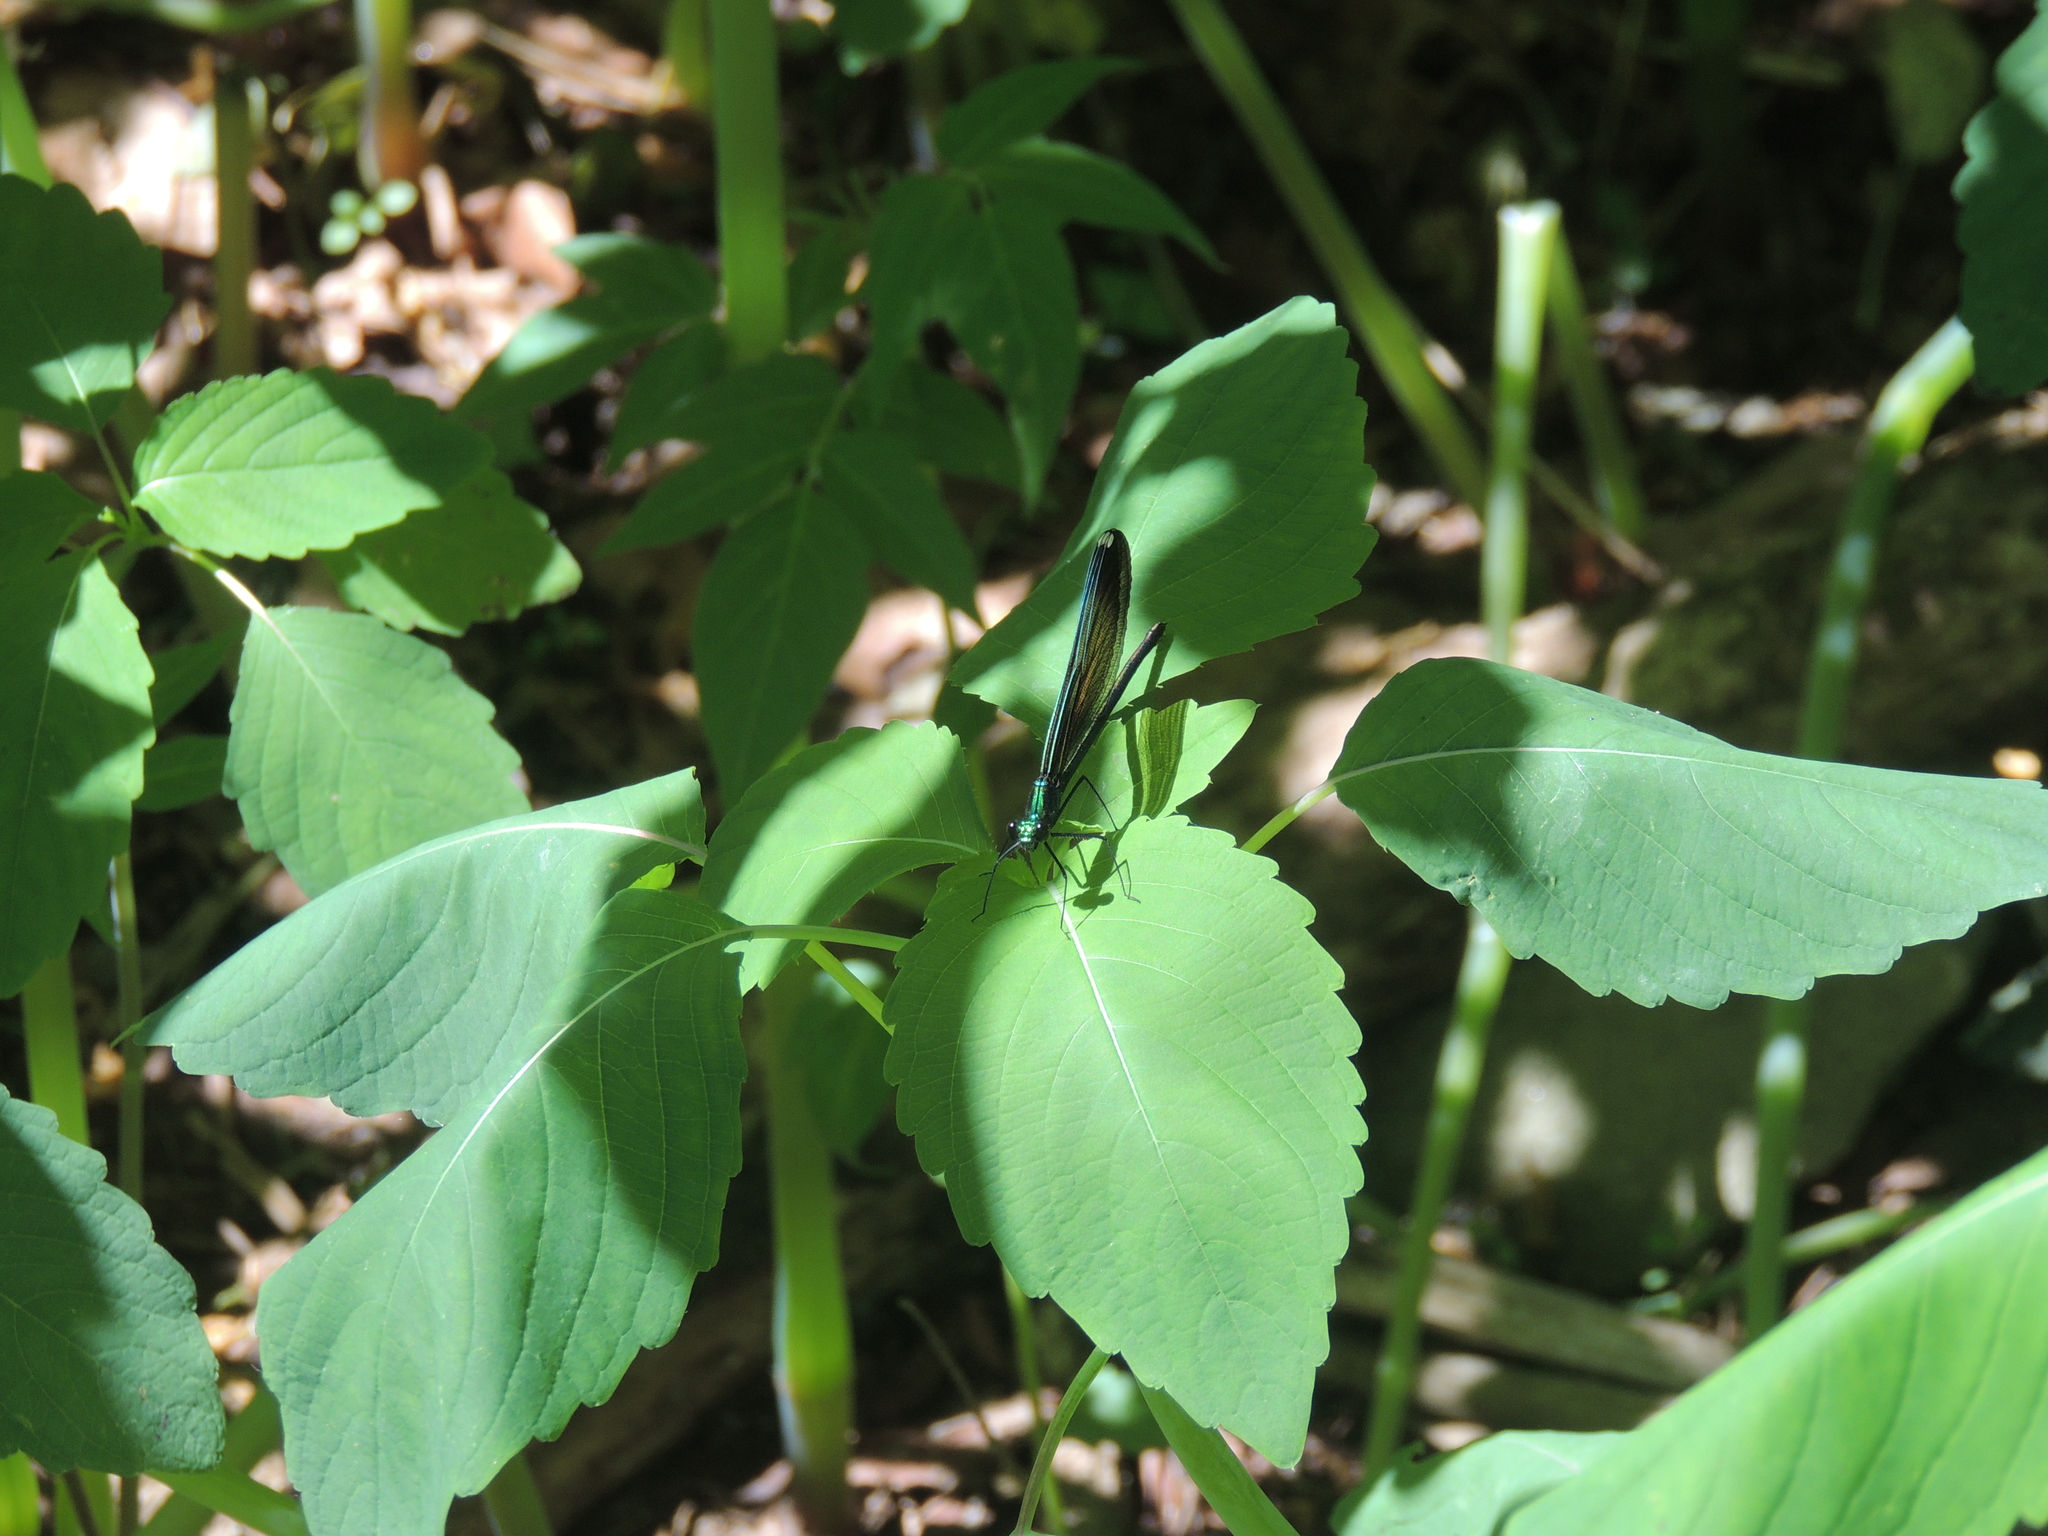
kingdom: Animalia
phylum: Arthropoda
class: Insecta
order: Odonata
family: Calopterygidae
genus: Calopteryx
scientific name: Calopteryx maculata
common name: Ebony jewelwing
